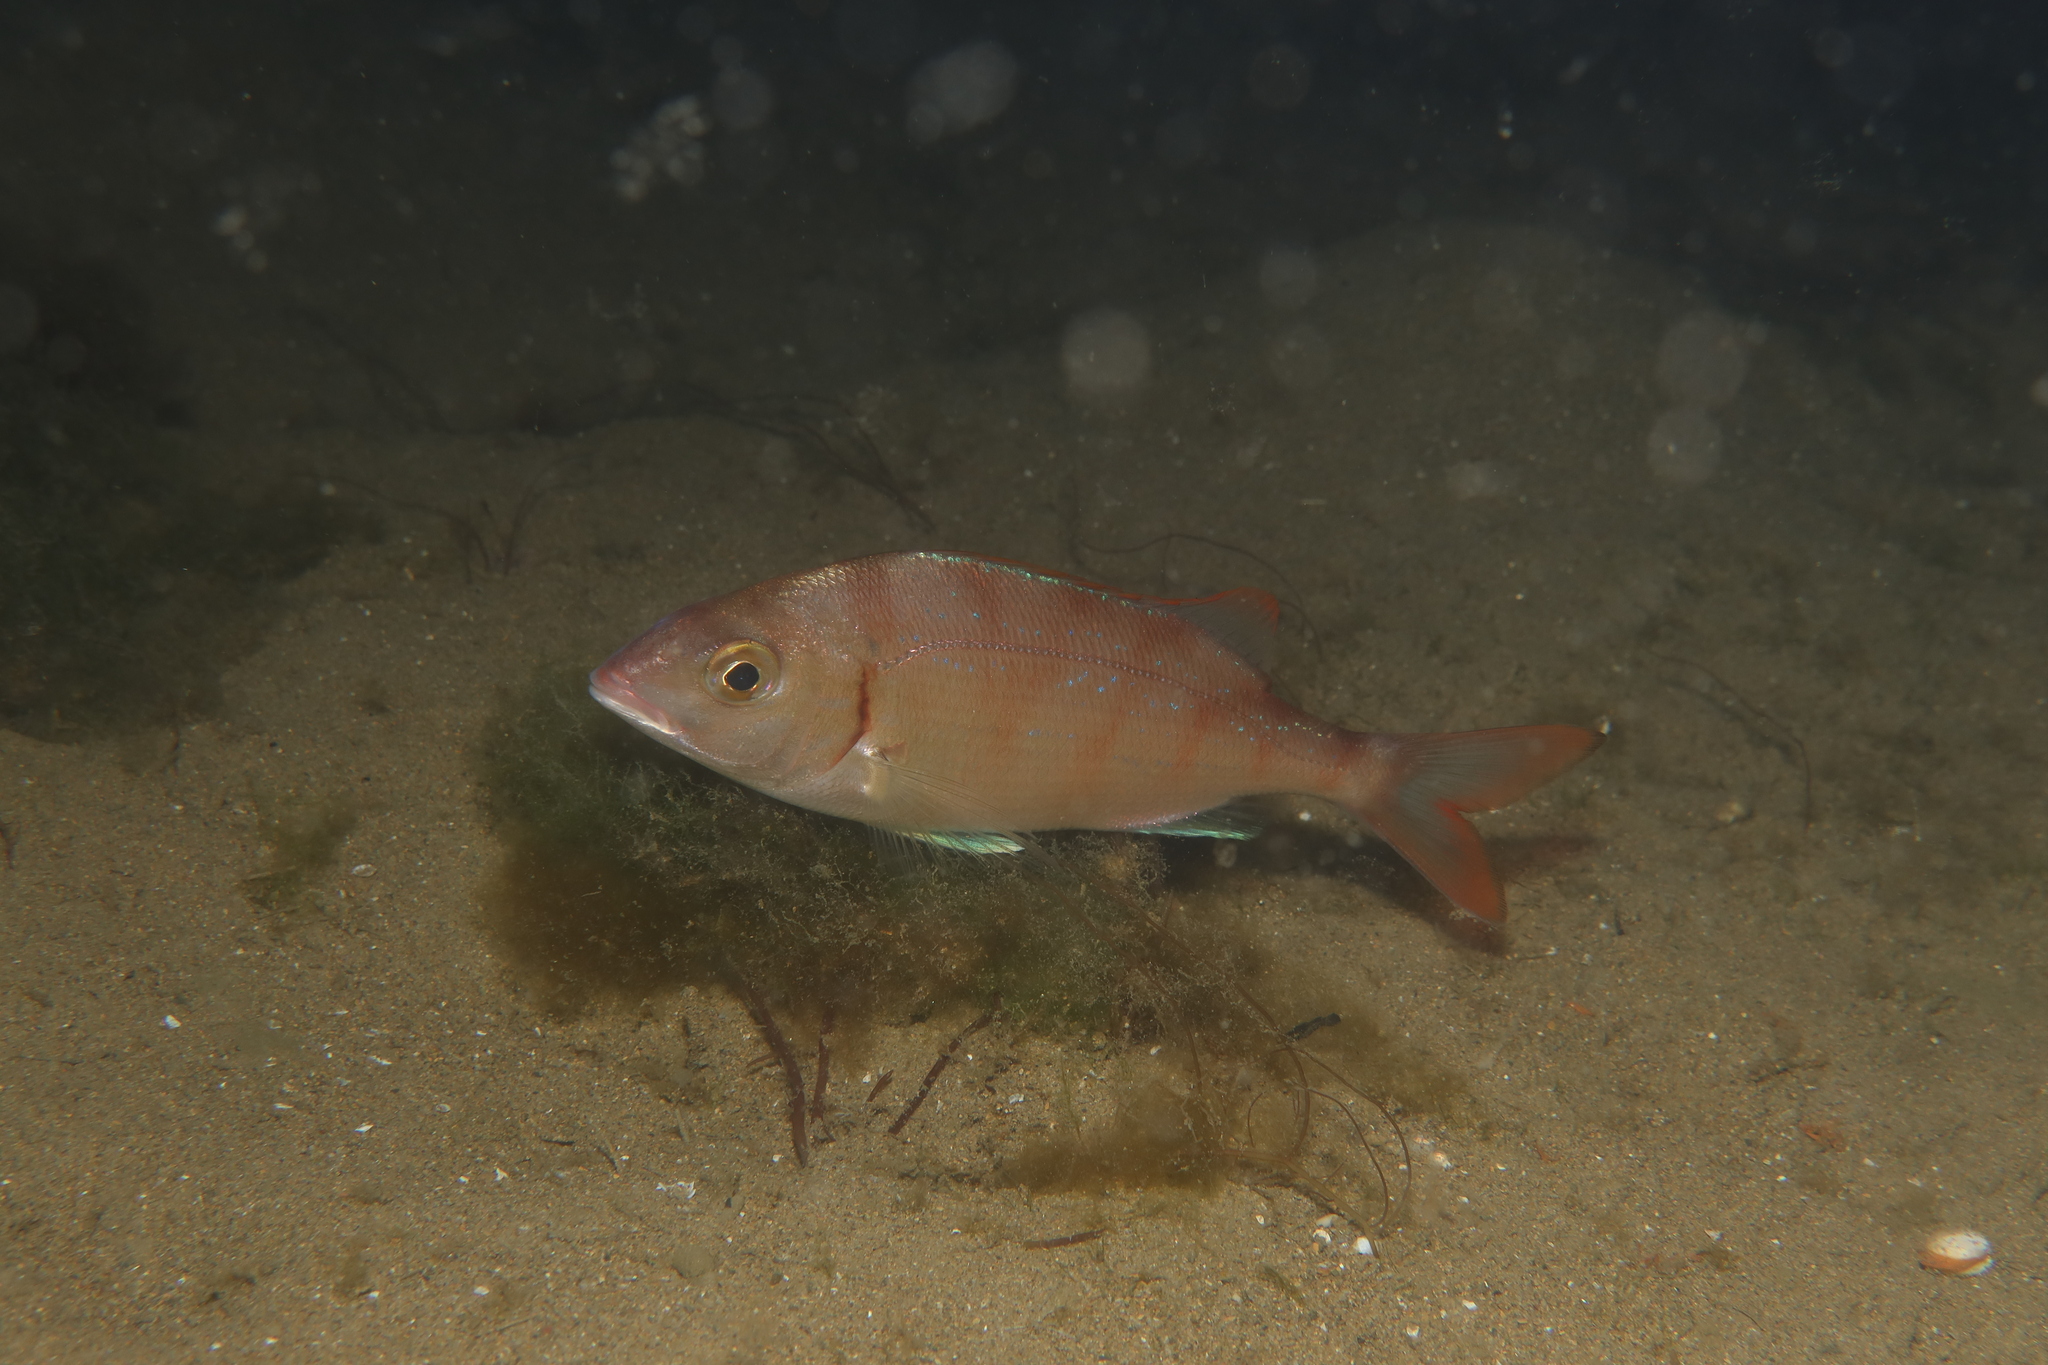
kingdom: Animalia
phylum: Chordata
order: Perciformes
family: Sparidae
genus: Pagellus
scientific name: Pagellus erythrinus
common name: Pandora
